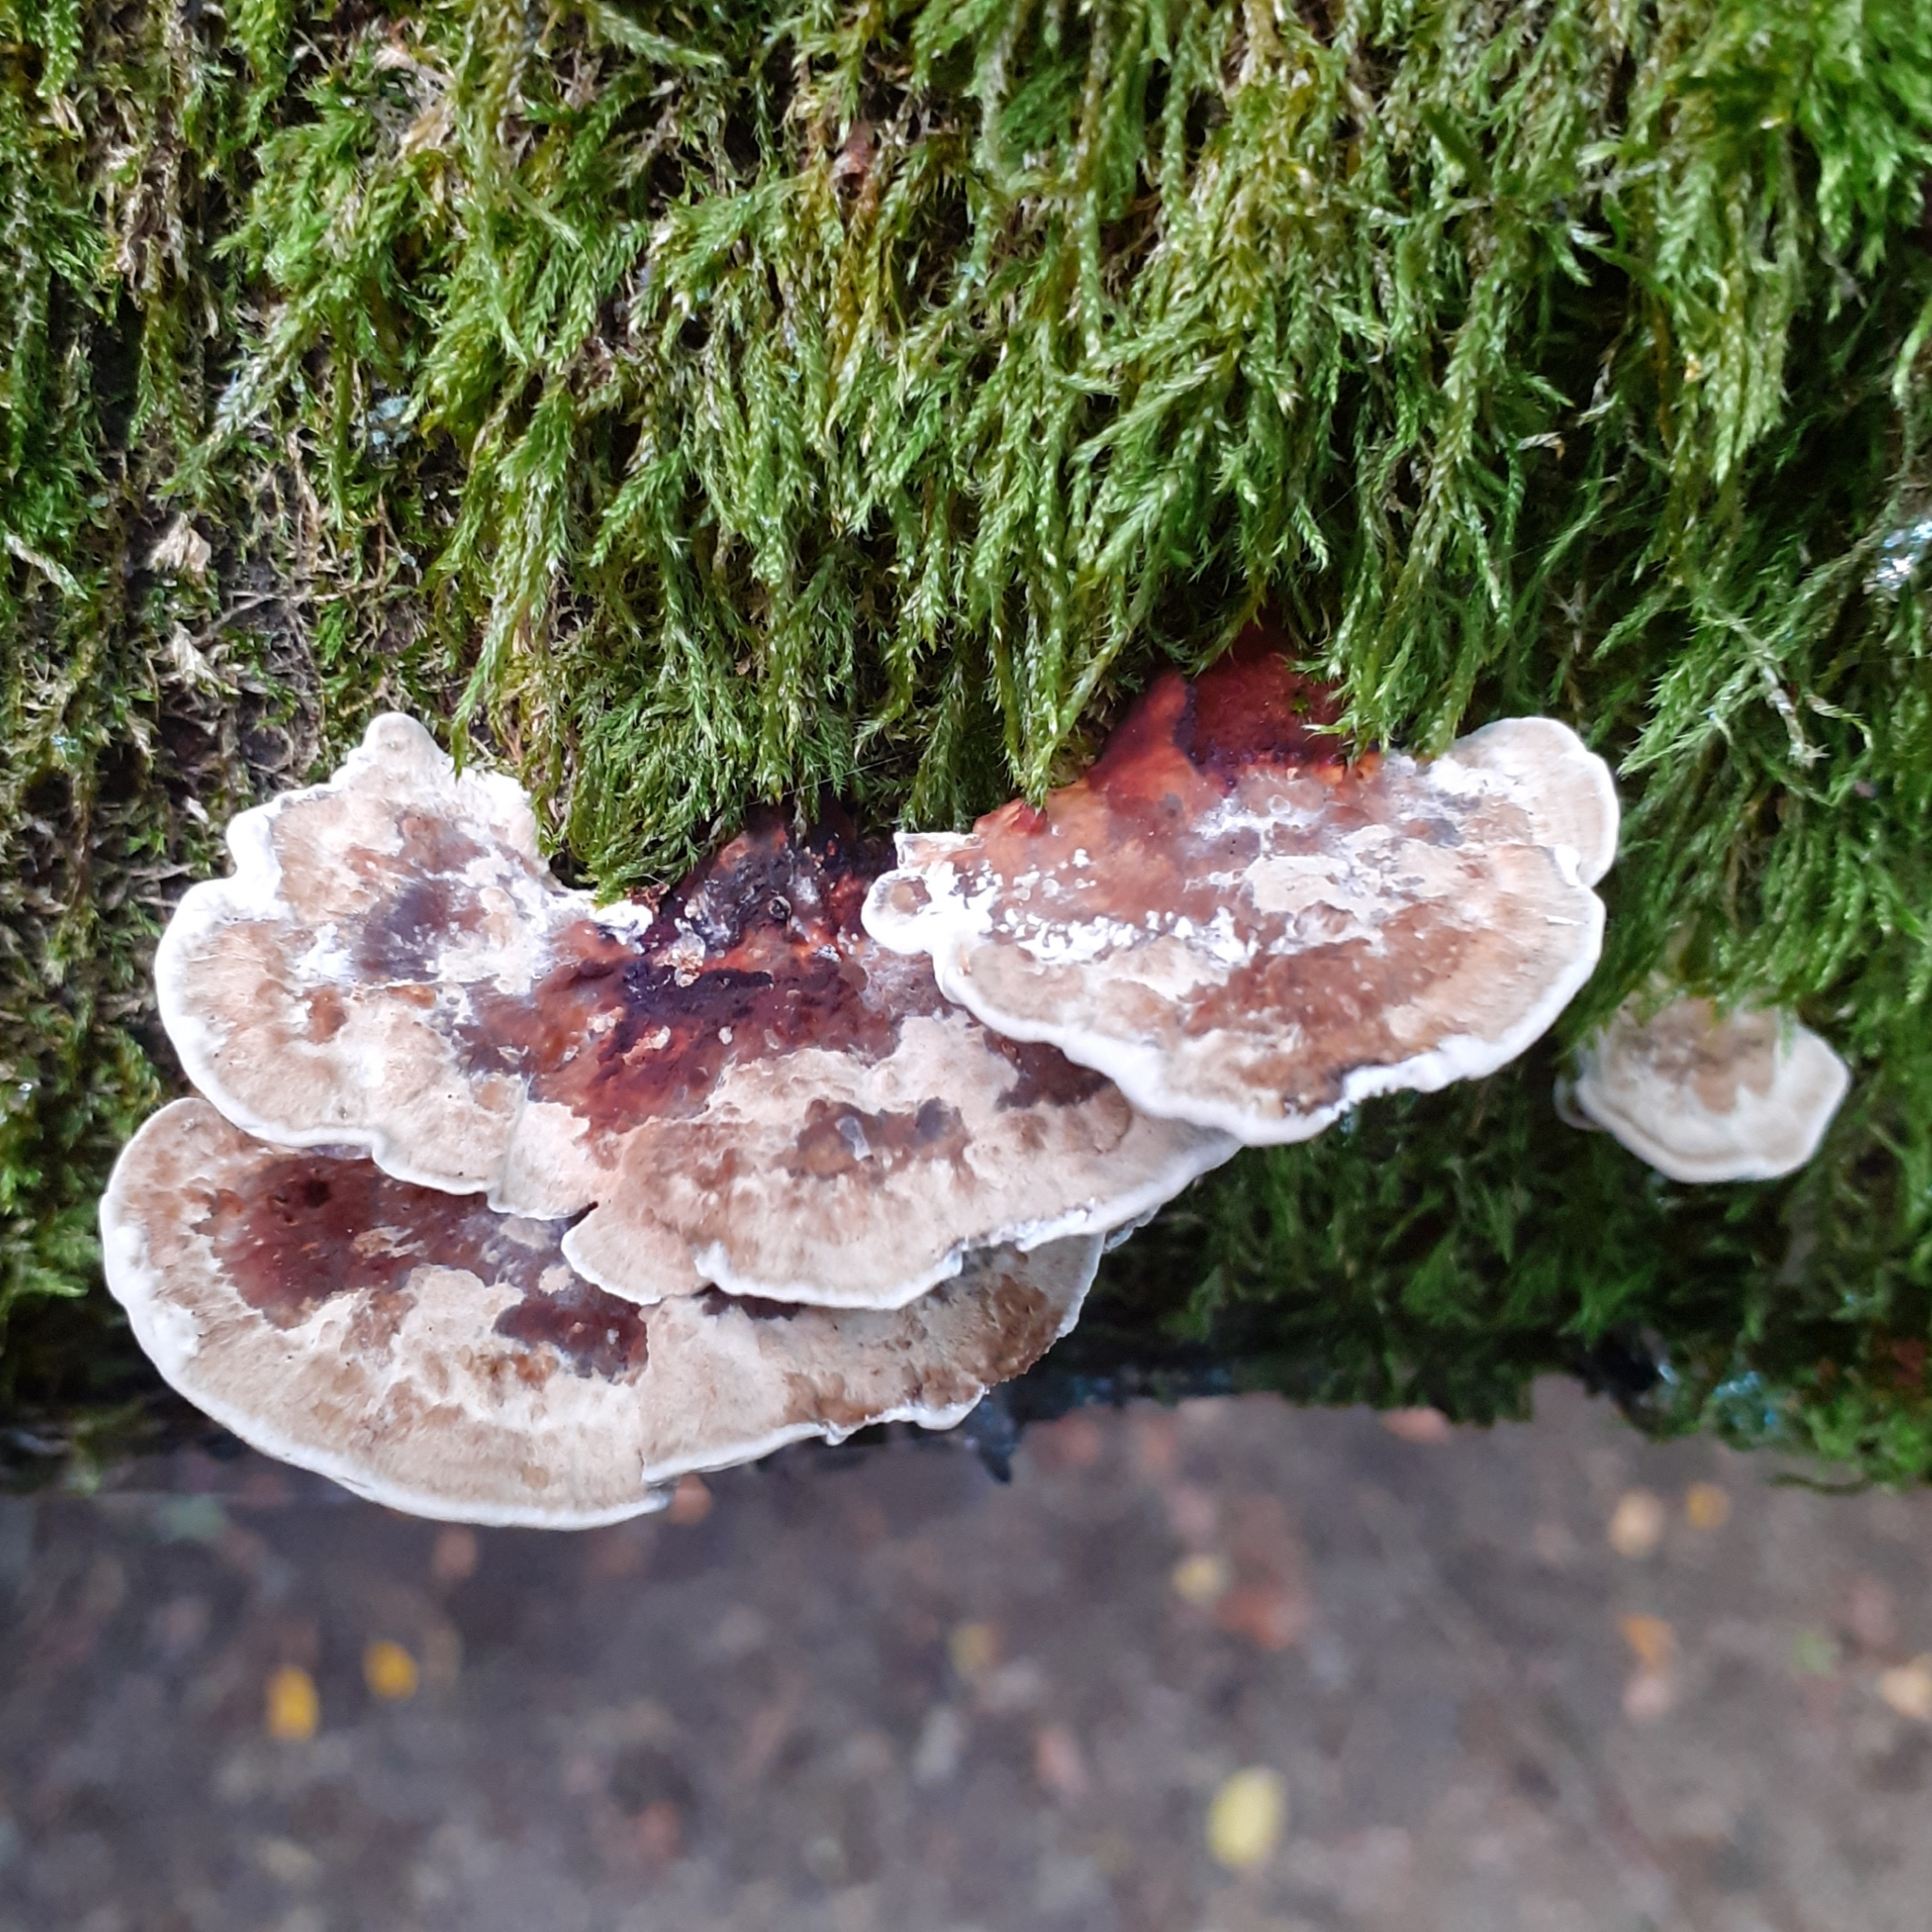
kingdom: Fungi
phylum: Basidiomycota
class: Agaricomycetes
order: Polyporales
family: Polyporaceae
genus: Daedaleopsis
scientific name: Daedaleopsis confragosa
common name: Blushing bracket
